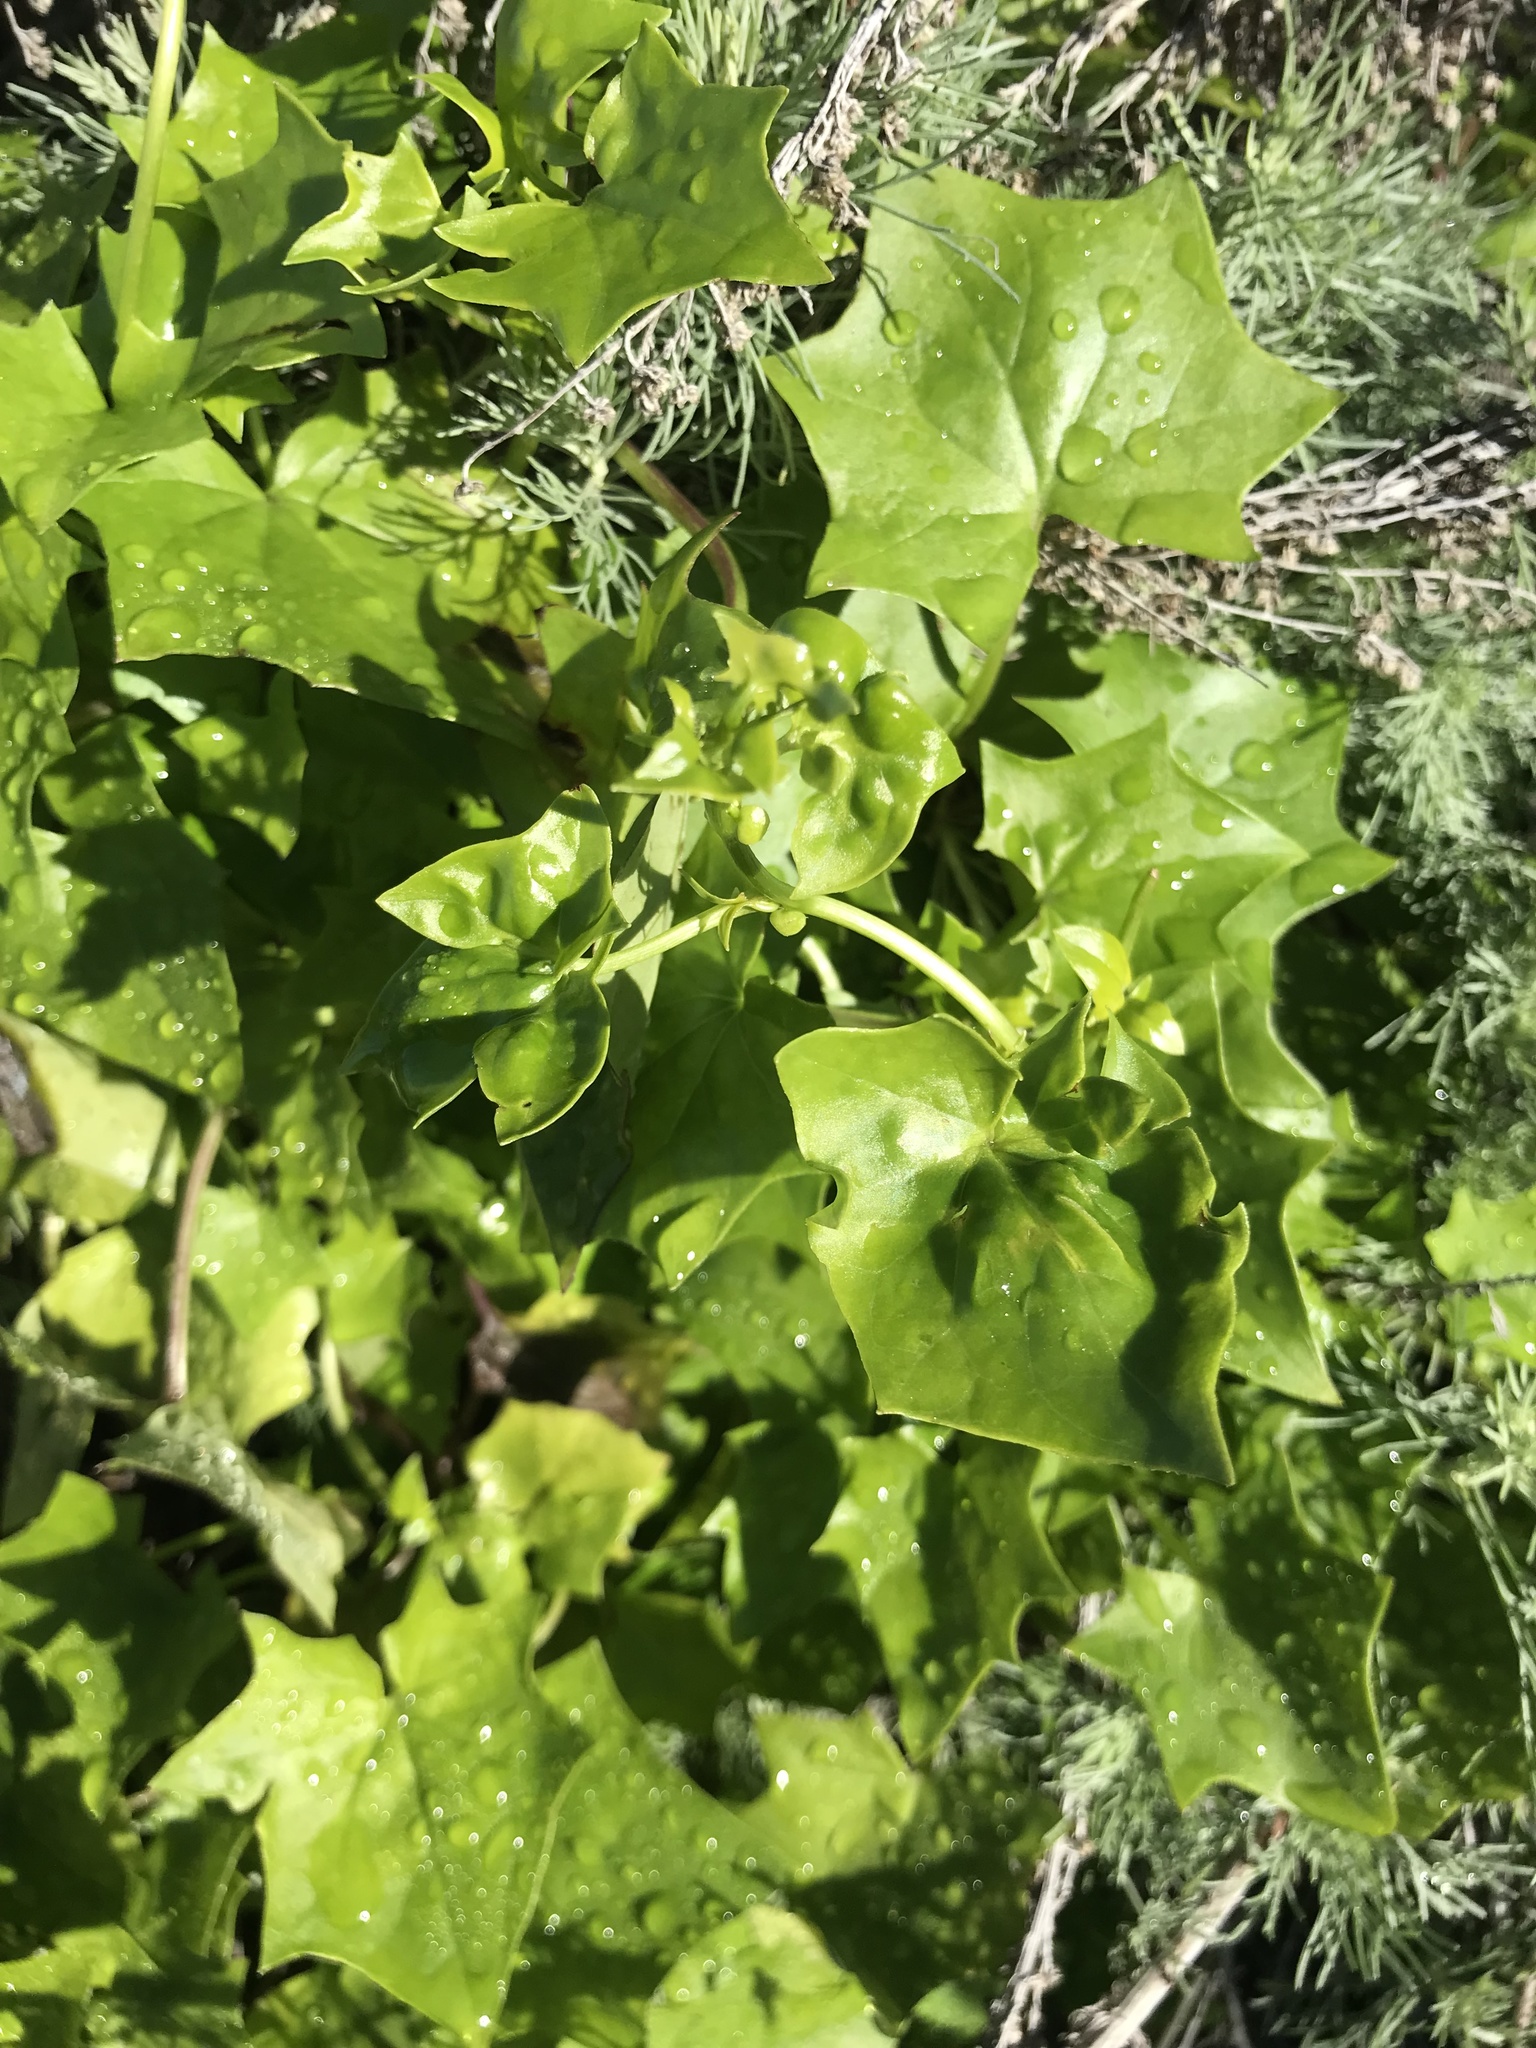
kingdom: Plantae
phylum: Tracheophyta
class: Magnoliopsida
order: Asterales
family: Asteraceae
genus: Delairea
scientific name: Delairea odorata
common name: Cape-ivy
